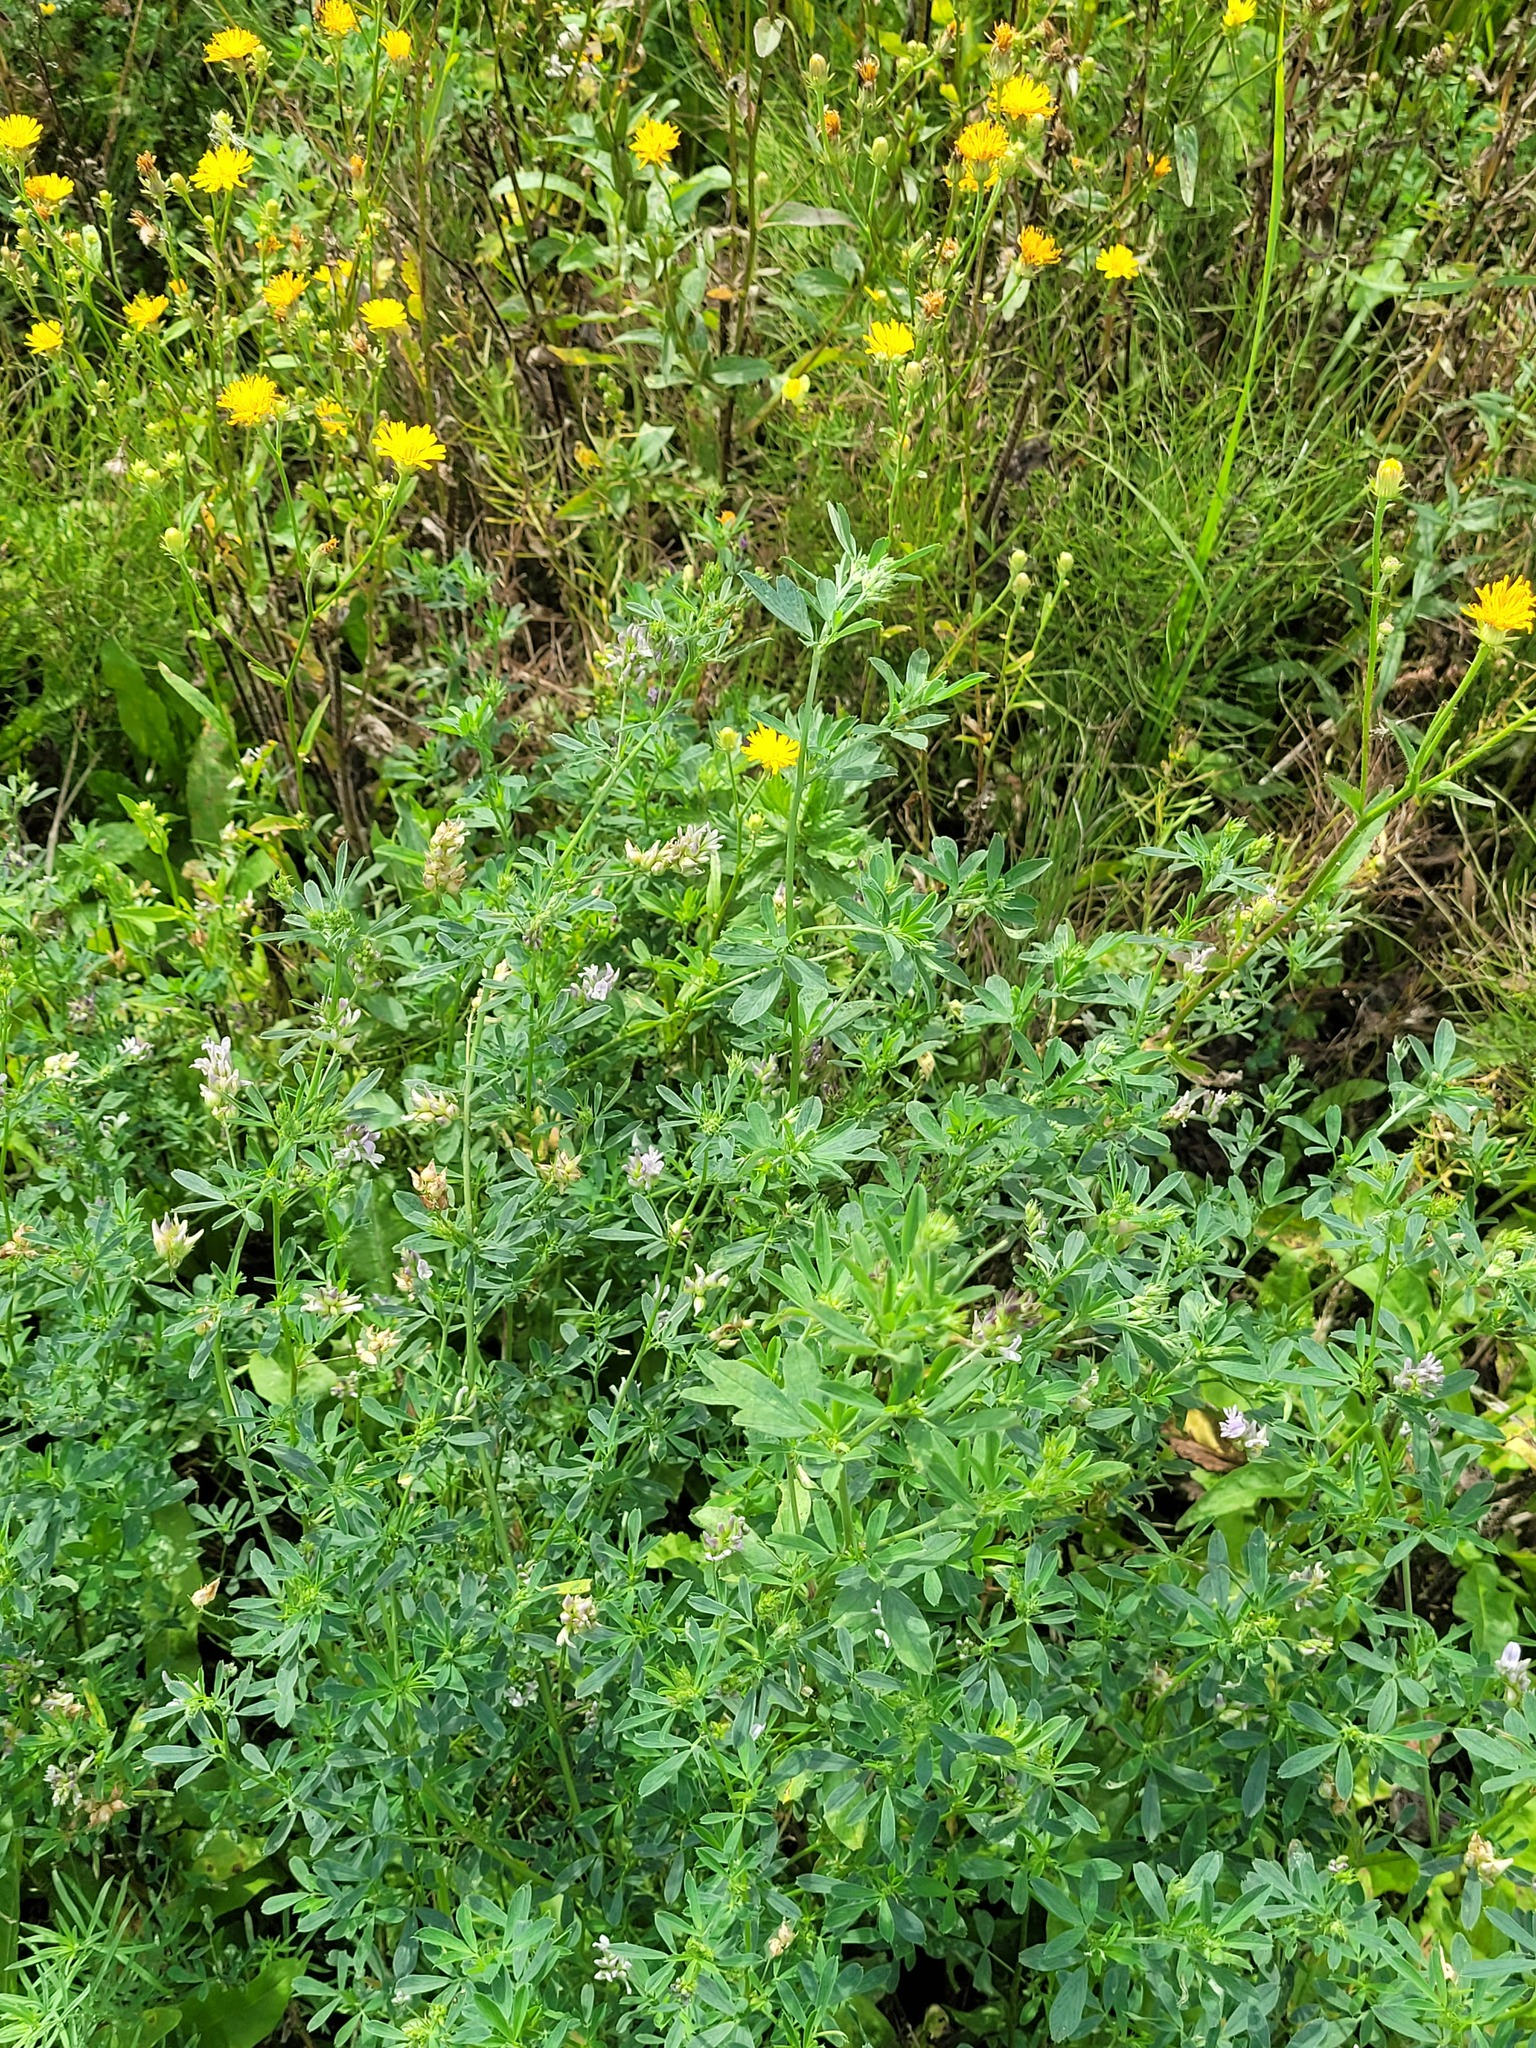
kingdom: Plantae
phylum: Tracheophyta
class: Magnoliopsida
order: Fabales
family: Fabaceae
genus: Medicago
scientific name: Medicago varia
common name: Sand lucerne
